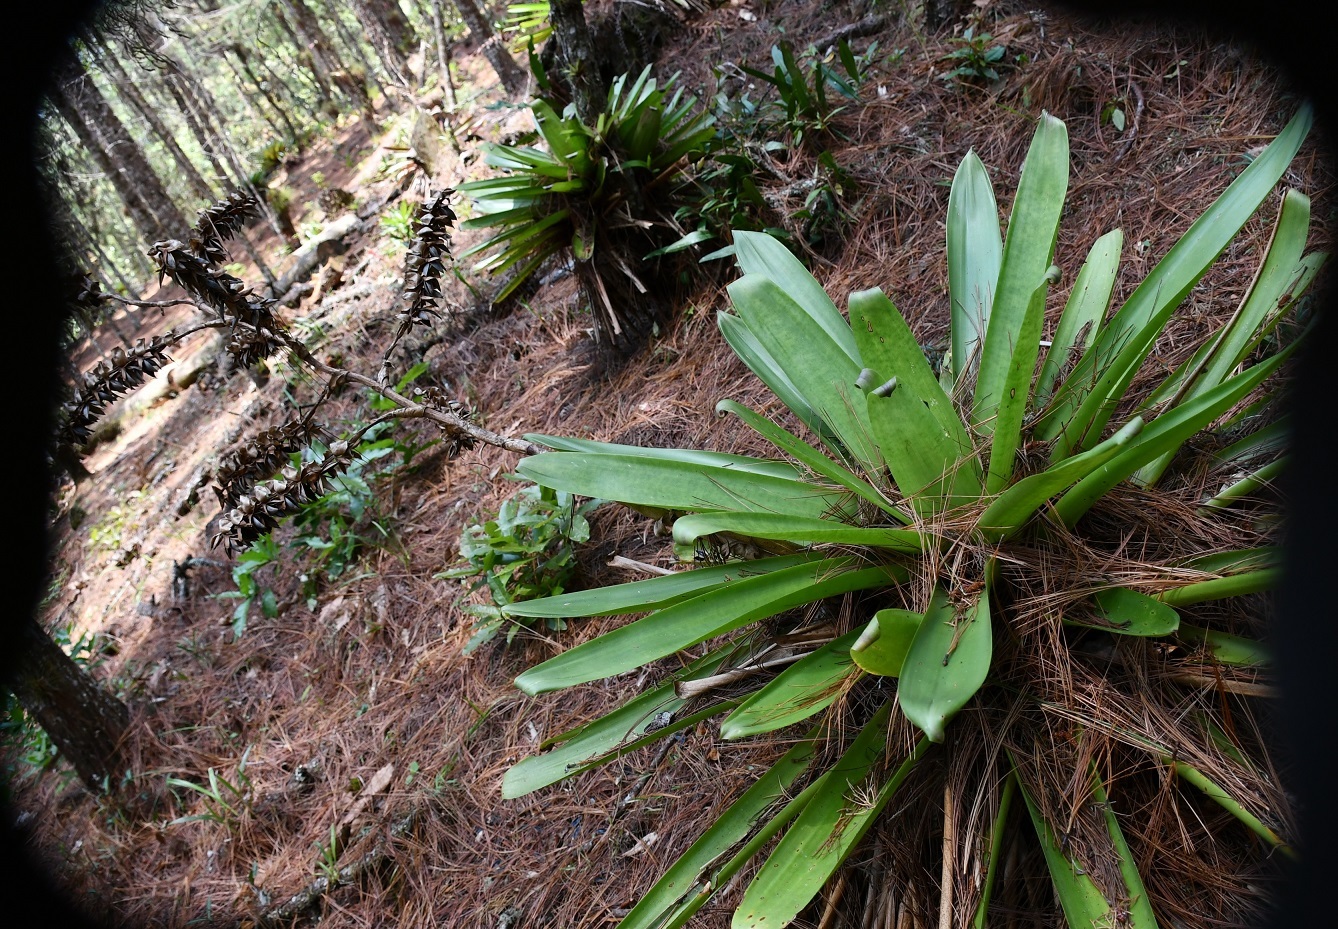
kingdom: Plantae
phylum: Tracheophyta
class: Liliopsida
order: Poales
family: Bromeliaceae
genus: Werauhia
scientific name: Werauhia werckleana
